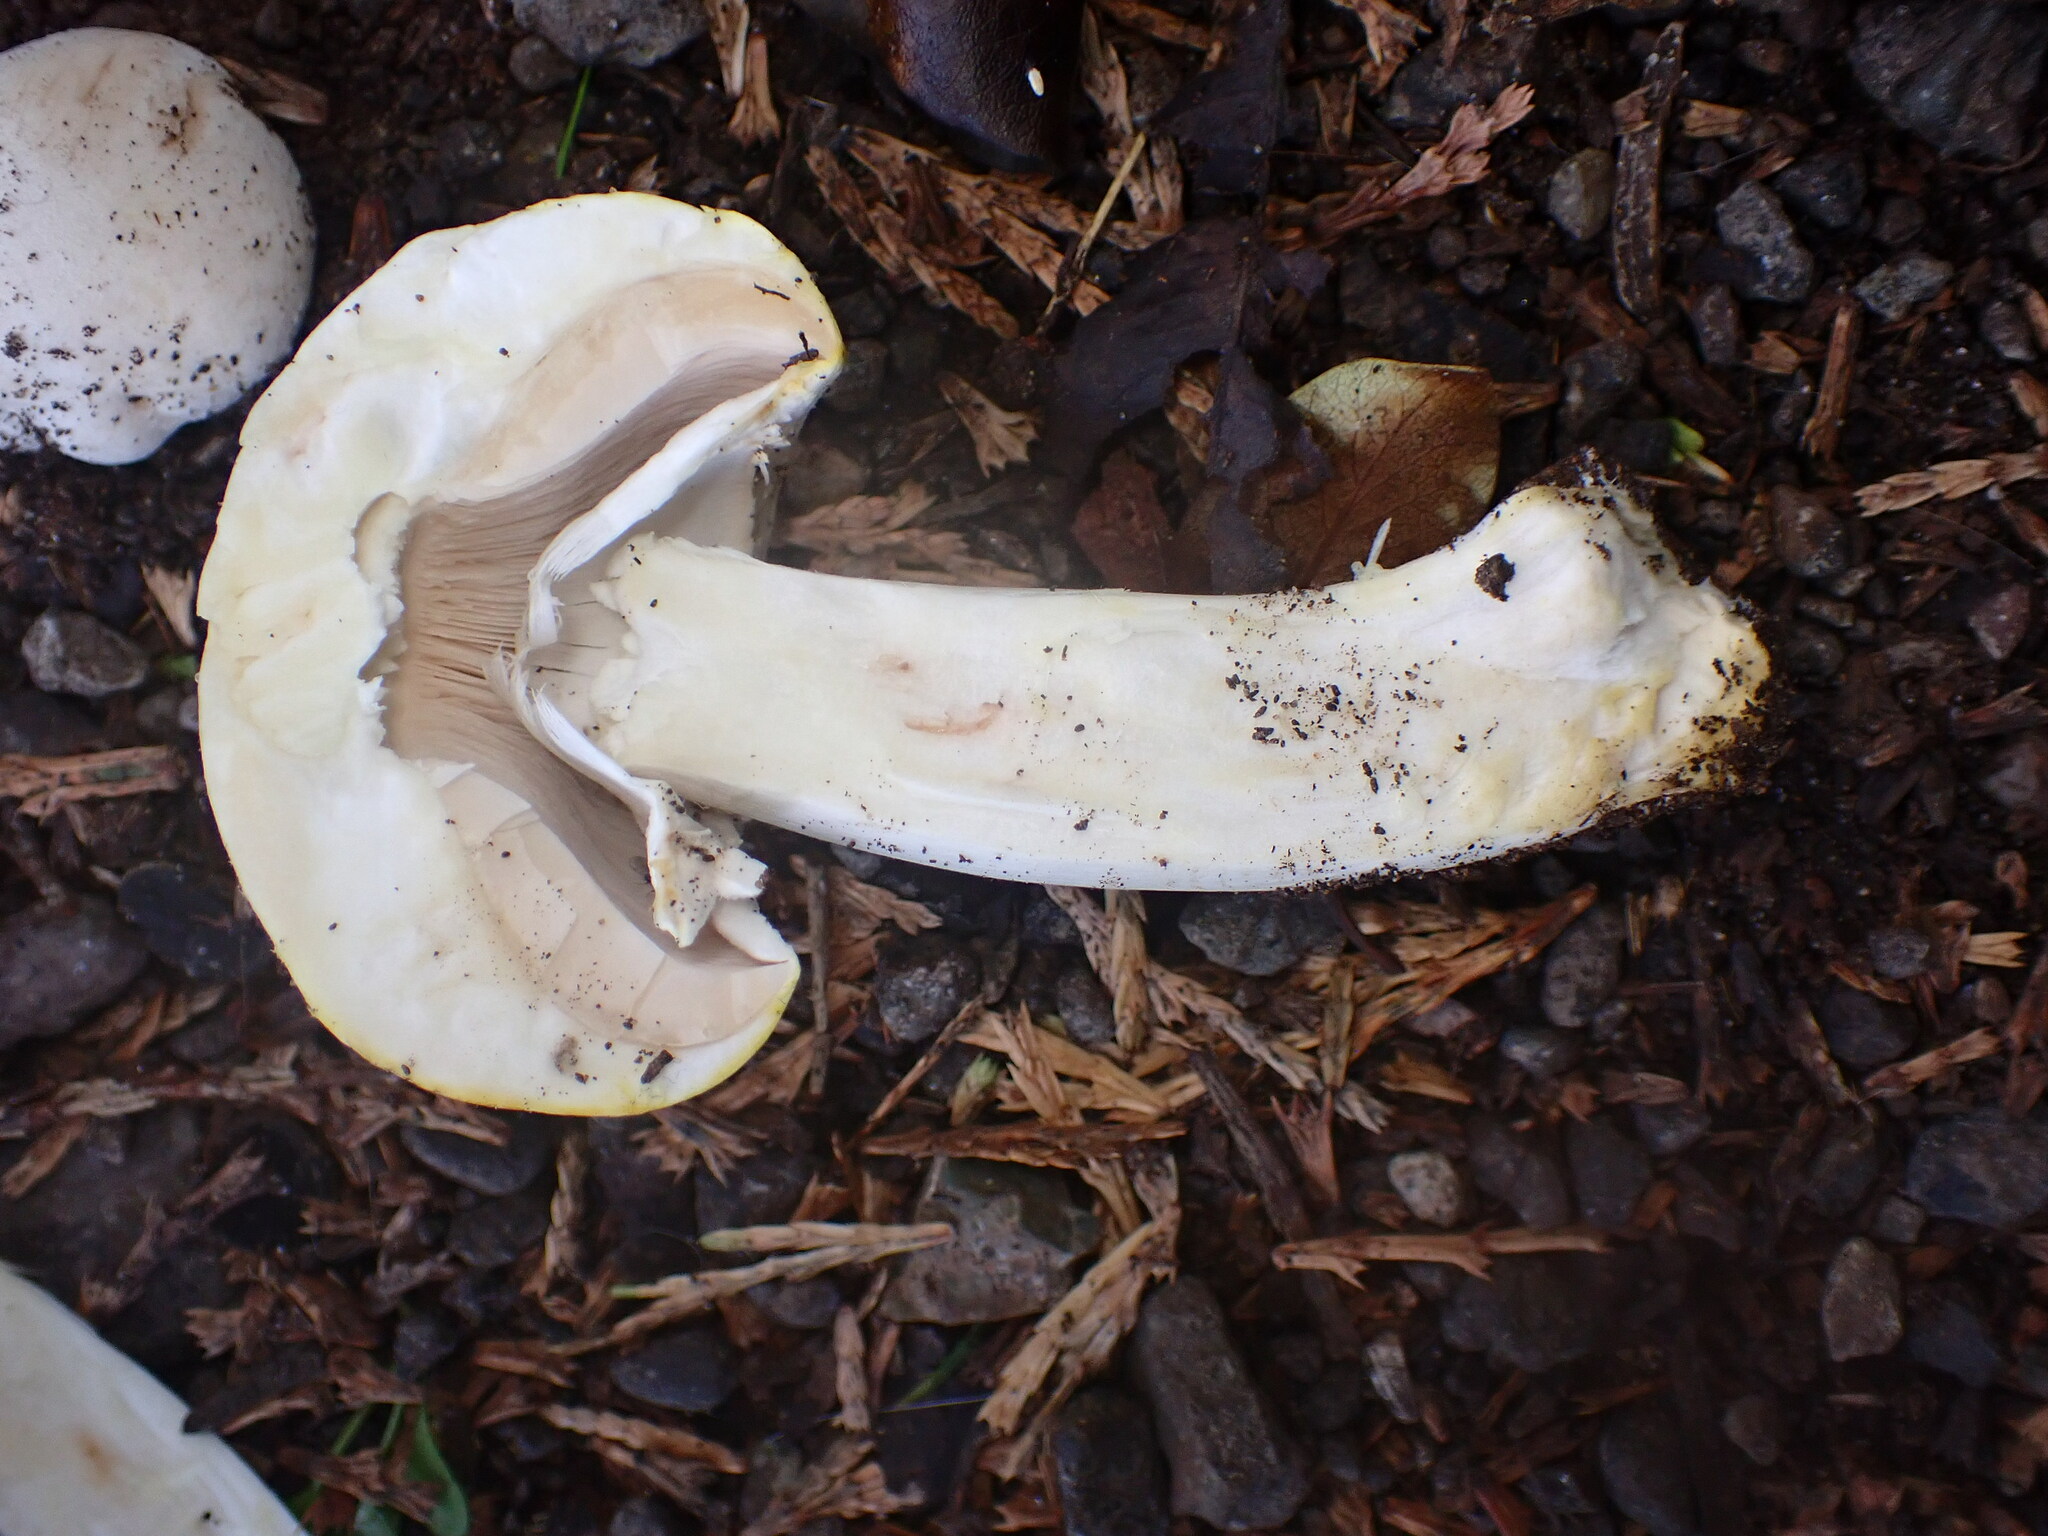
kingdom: Fungi
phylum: Basidiomycota
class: Agaricomycetes
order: Agaricales
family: Agaricaceae
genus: Agaricus
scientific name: Agaricus xanthodermus
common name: Yellow stainer
